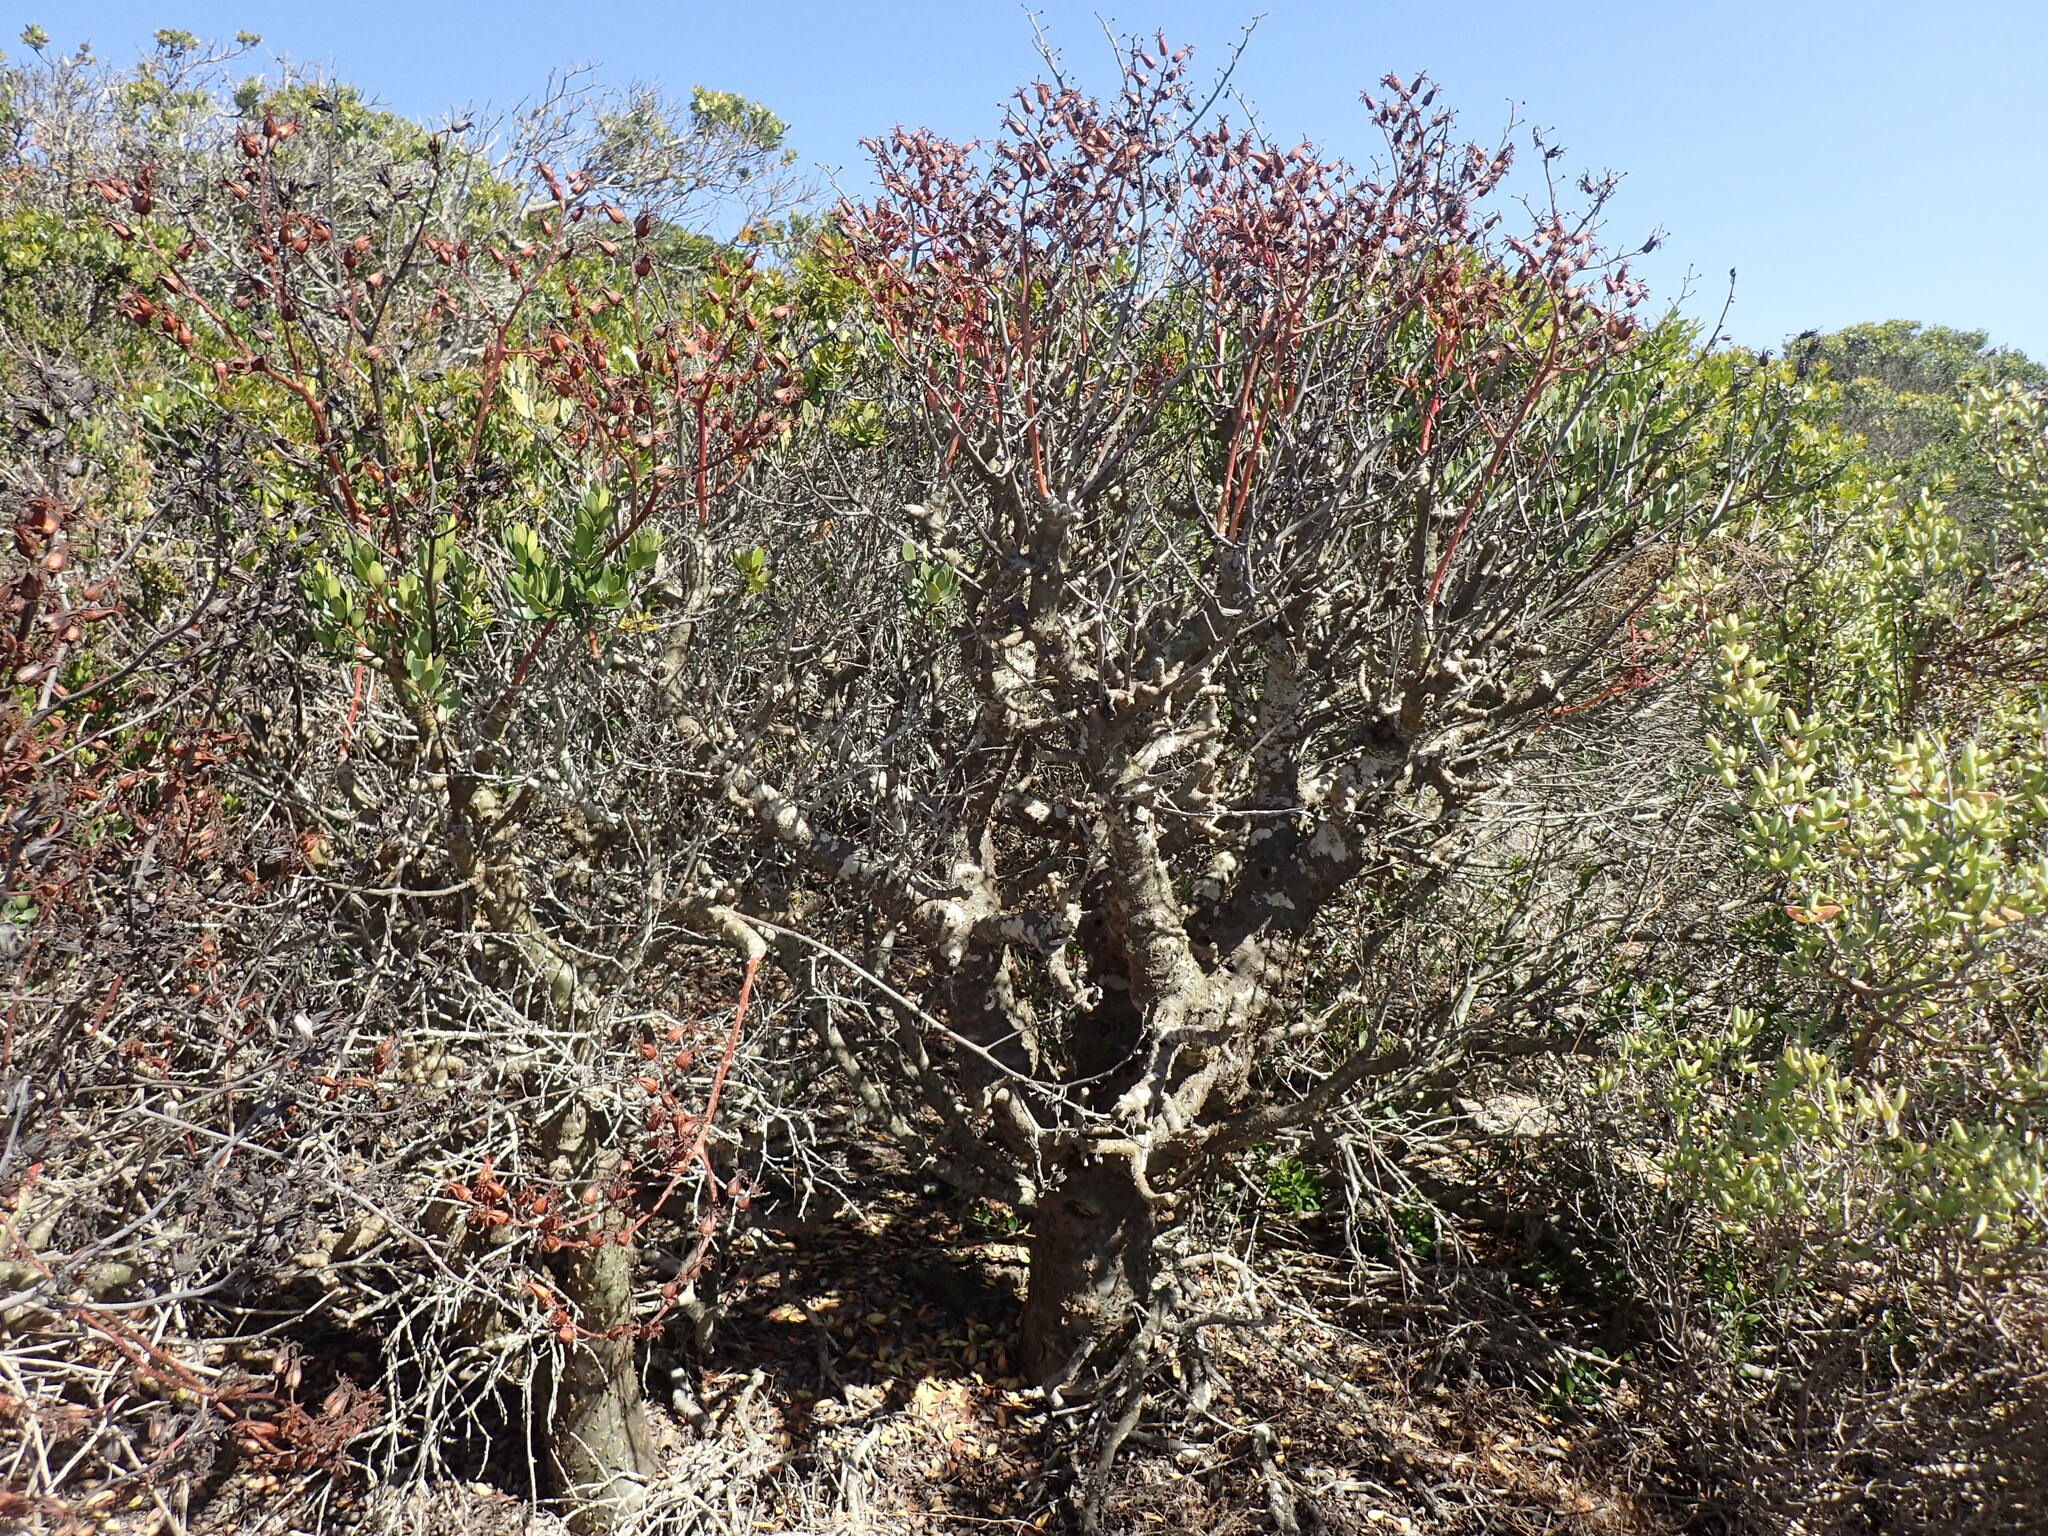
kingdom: Plantae
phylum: Tracheophyta
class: Magnoliopsida
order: Saxifragales
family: Crassulaceae
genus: Tylecodon
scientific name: Tylecodon paniculatus
